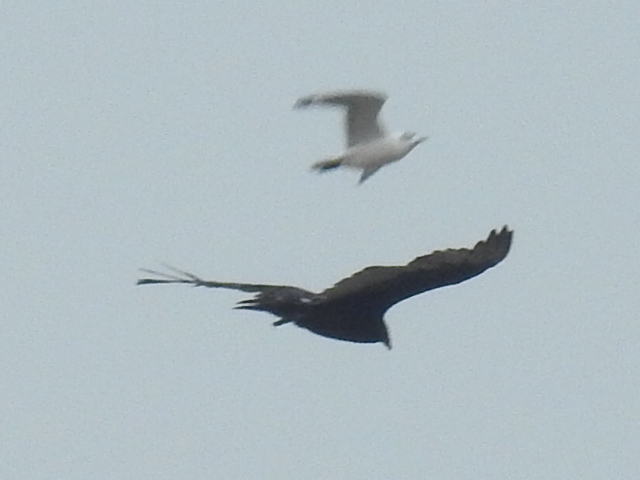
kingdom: Animalia
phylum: Chordata
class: Aves
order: Accipitriformes
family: Cathartidae
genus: Cathartes
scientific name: Cathartes aura
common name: Turkey vulture
